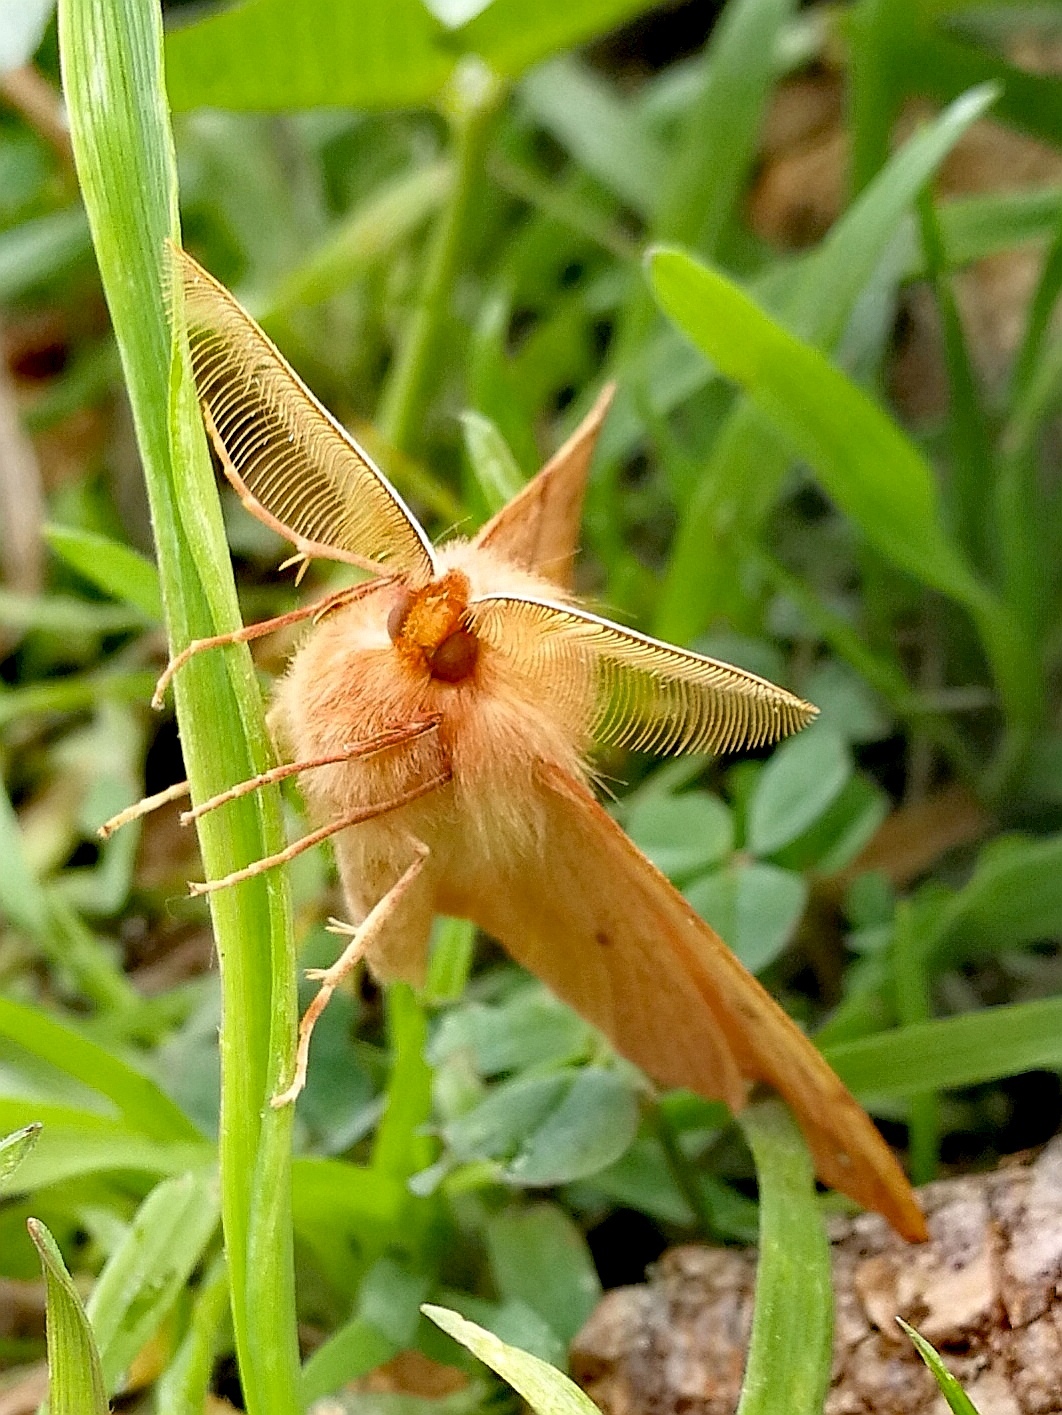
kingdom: Animalia
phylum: Arthropoda
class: Insecta
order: Lepidoptera
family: Geometridae
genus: Colotois
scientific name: Colotois pennaria
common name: Feathered thorn
